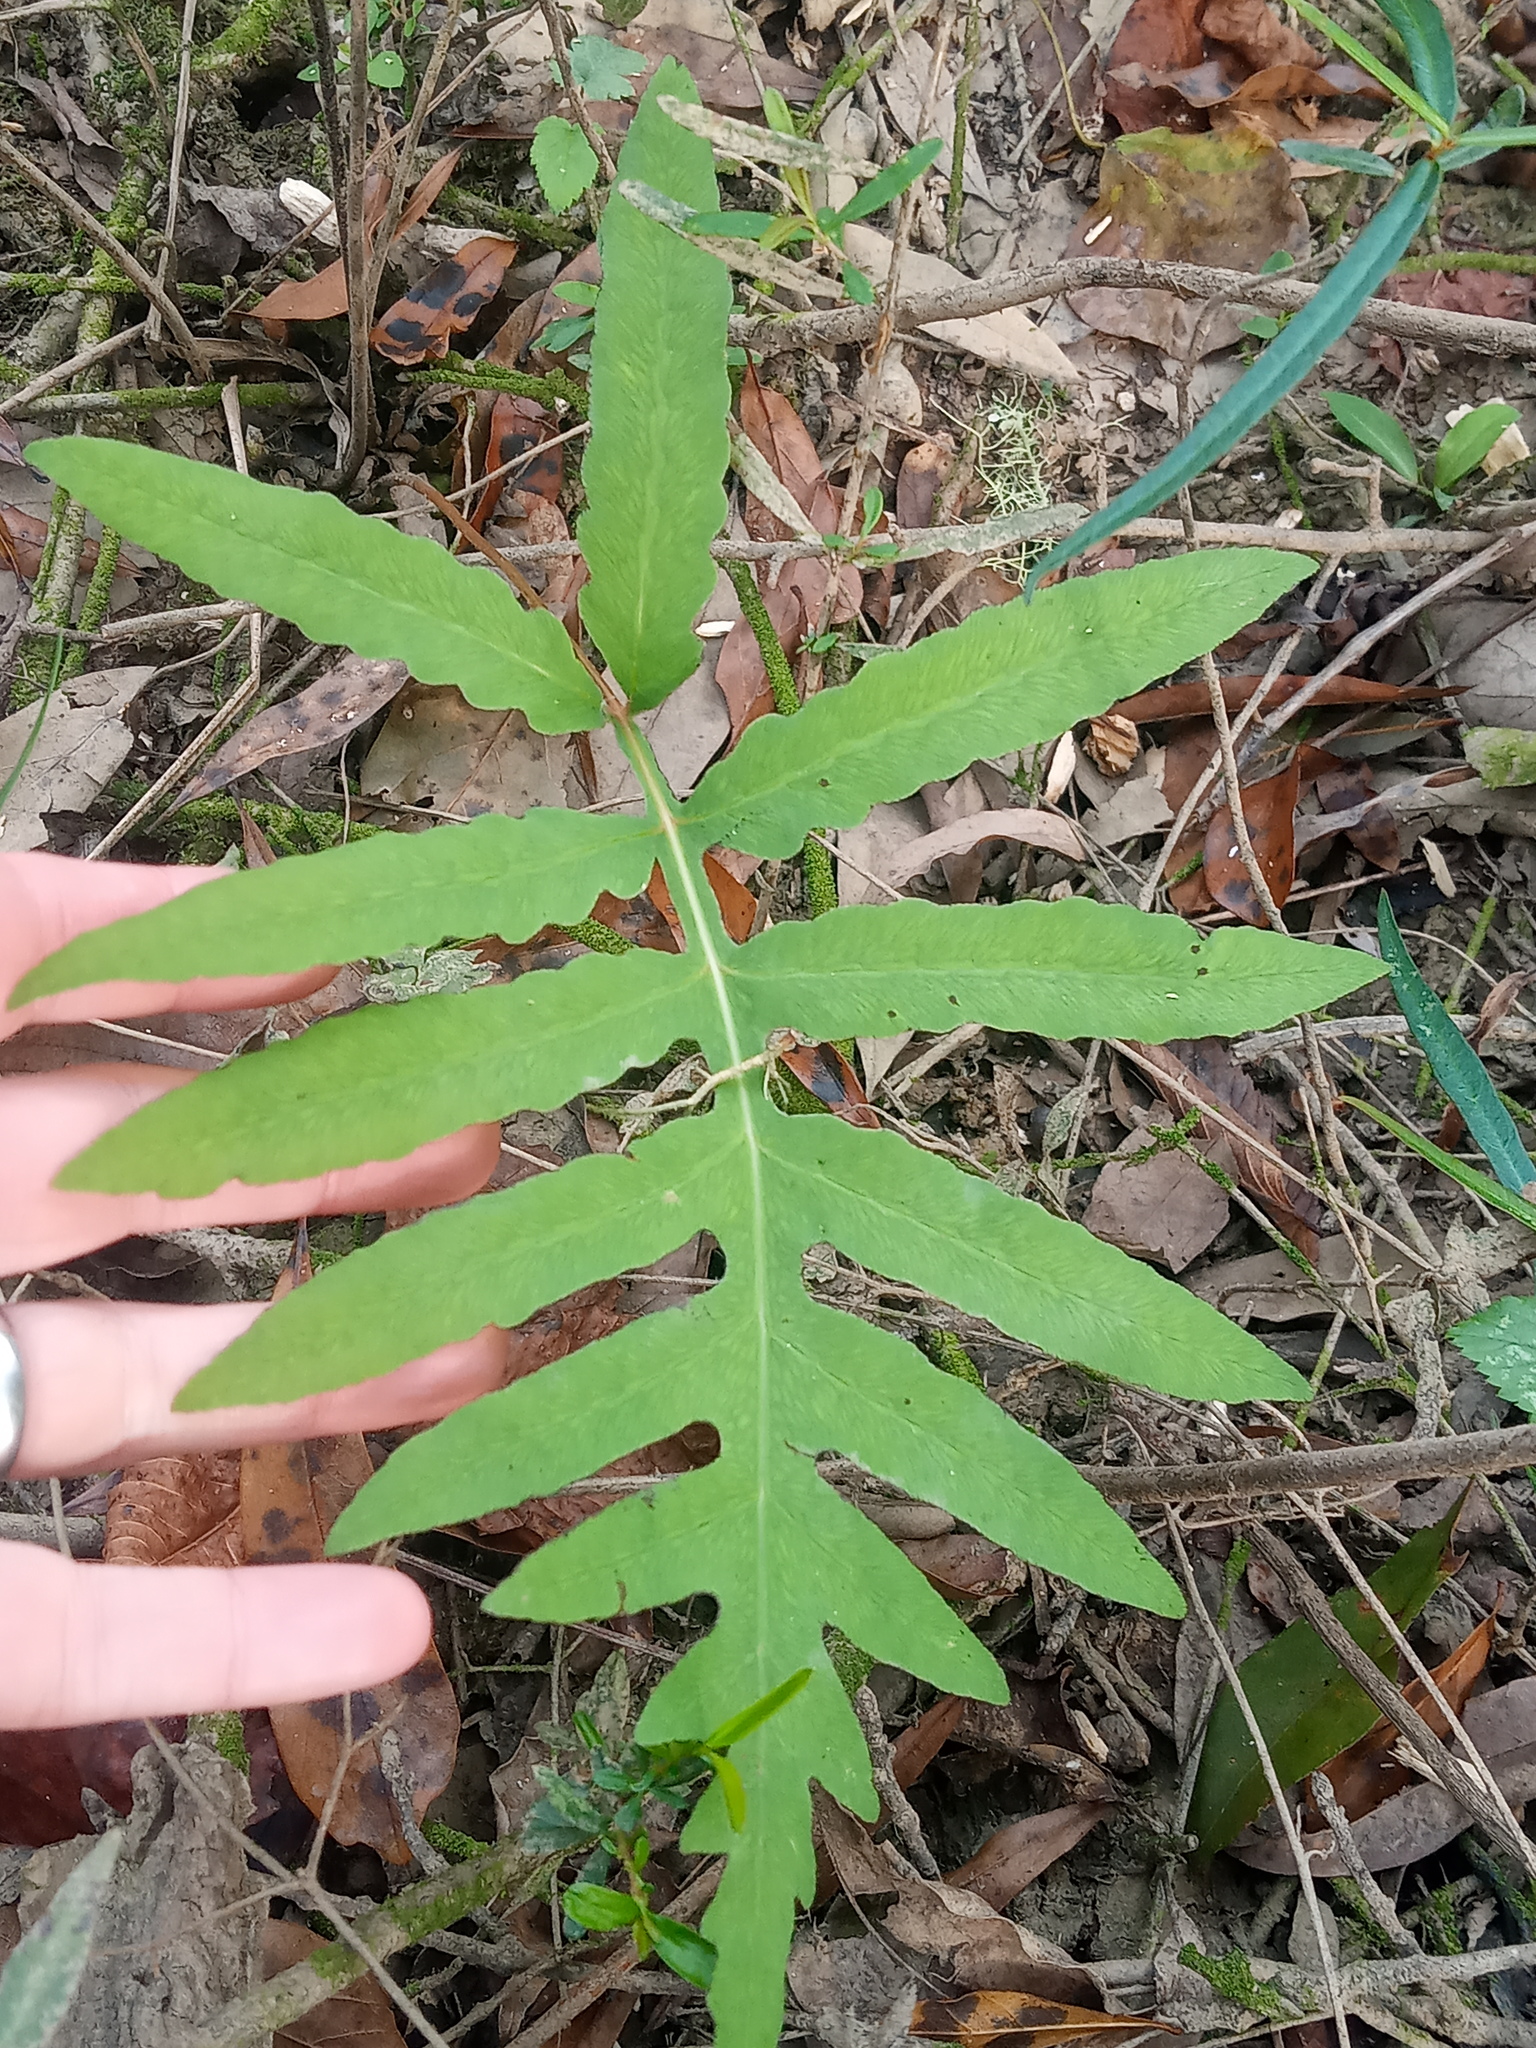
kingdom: Plantae
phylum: Tracheophyta
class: Polypodiopsida
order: Polypodiales
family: Onocleaceae
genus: Onoclea
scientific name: Onoclea sensibilis
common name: Sensitive fern
